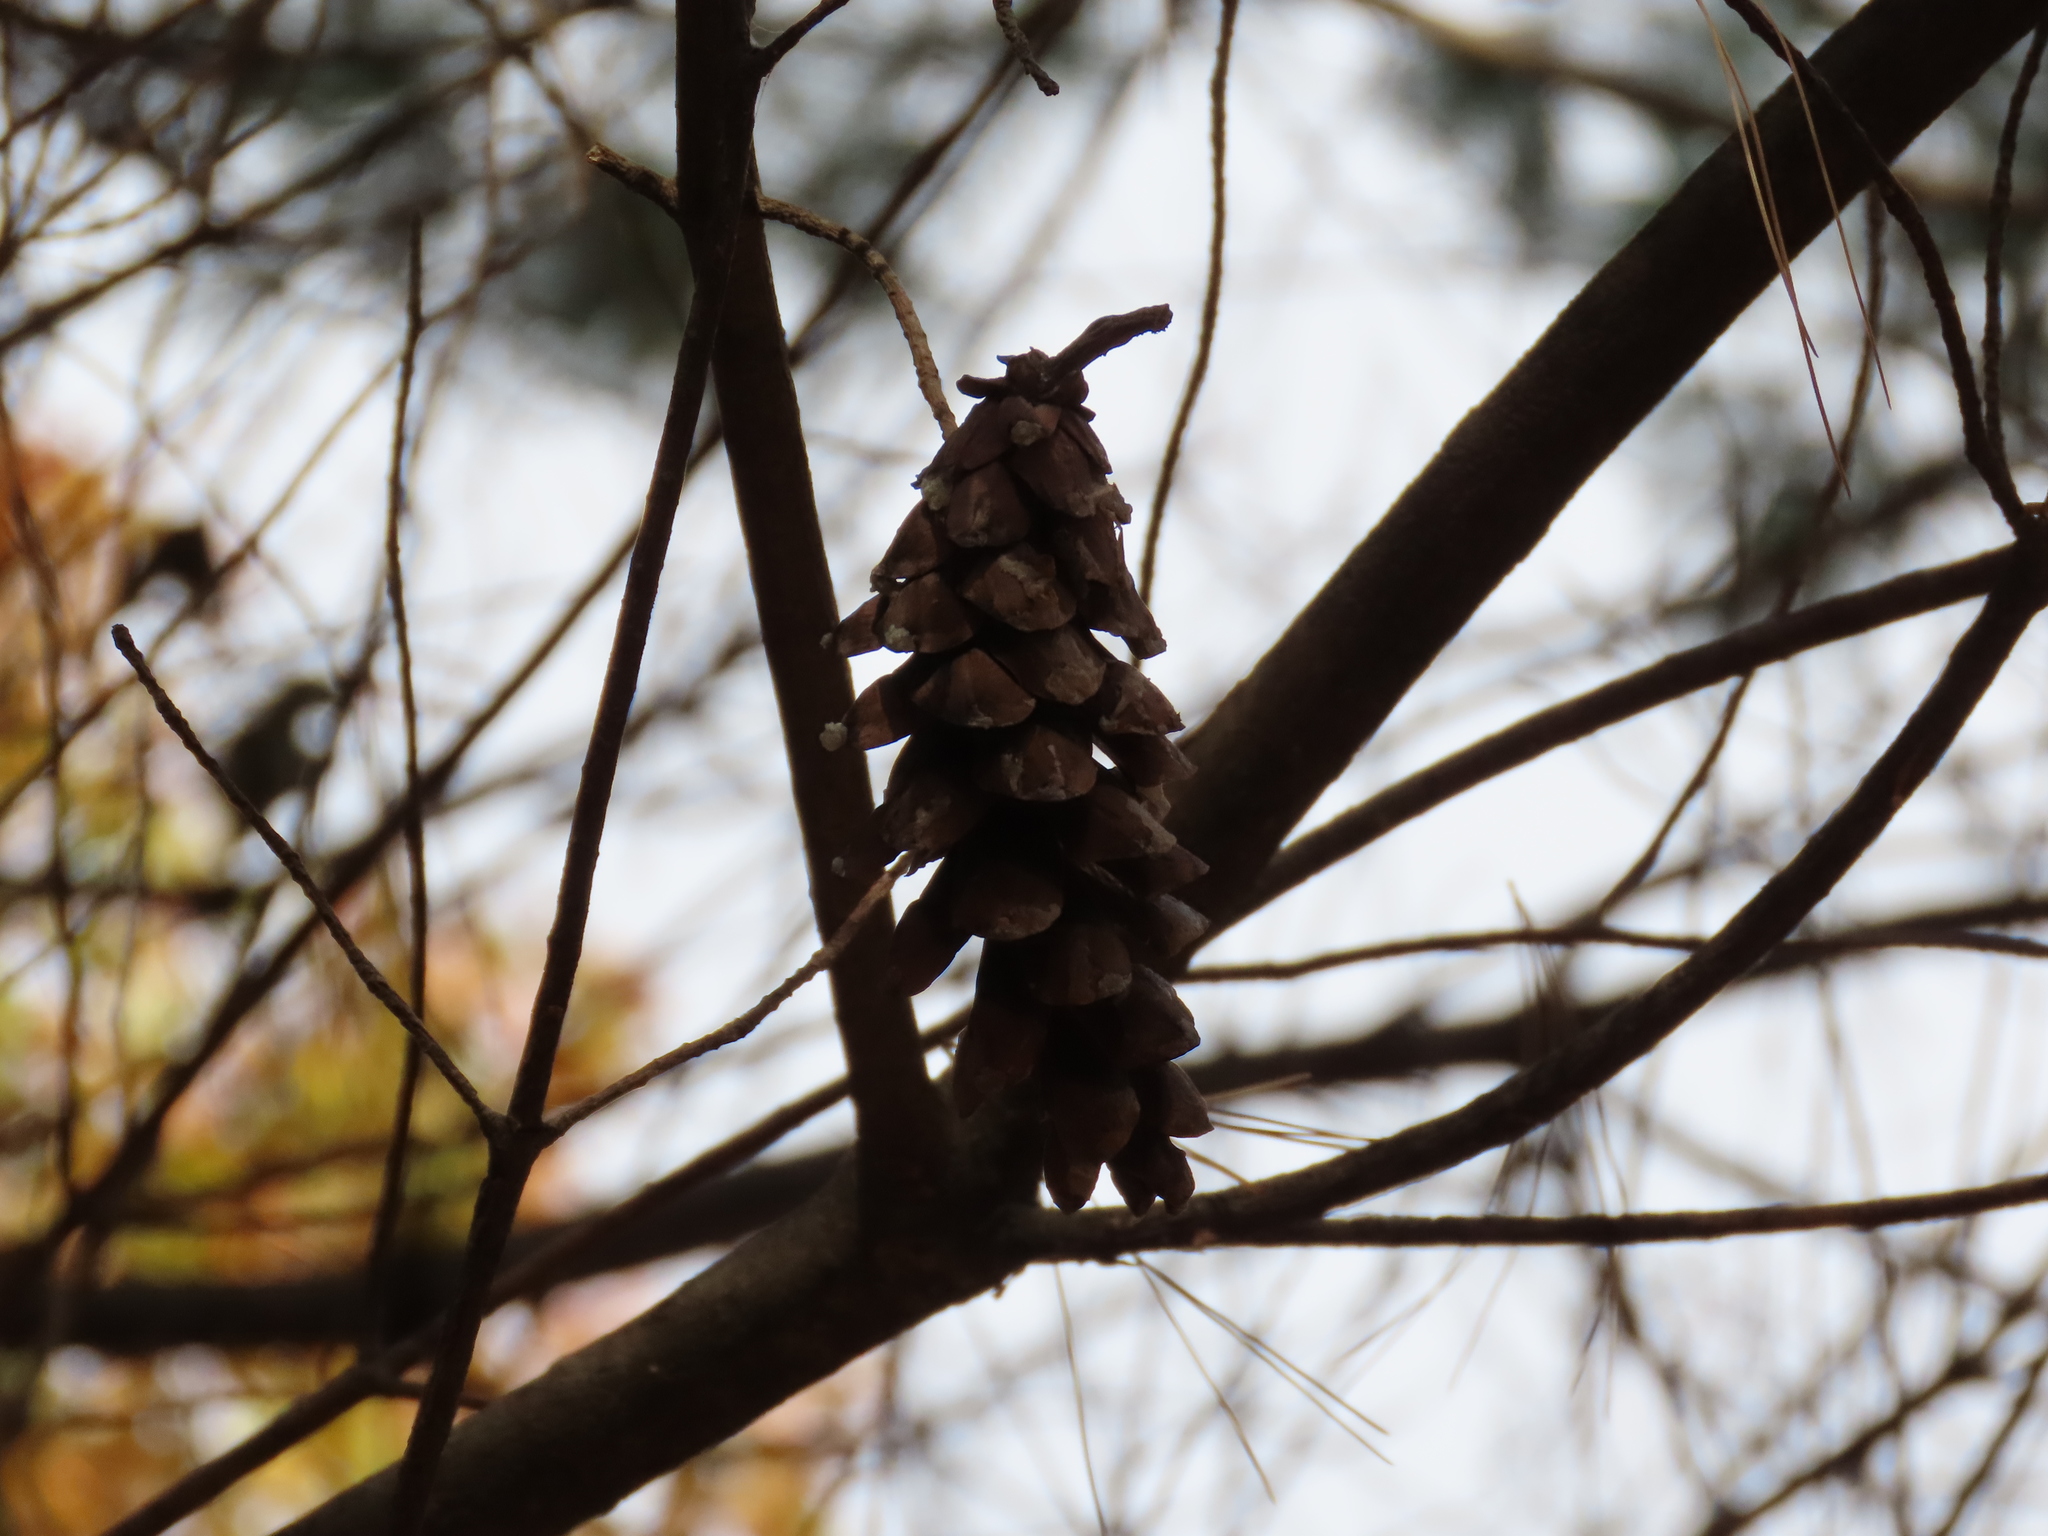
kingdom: Plantae
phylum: Tracheophyta
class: Pinopsida
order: Pinales
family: Pinaceae
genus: Pinus
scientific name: Pinus strobus
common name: Weymouth pine
